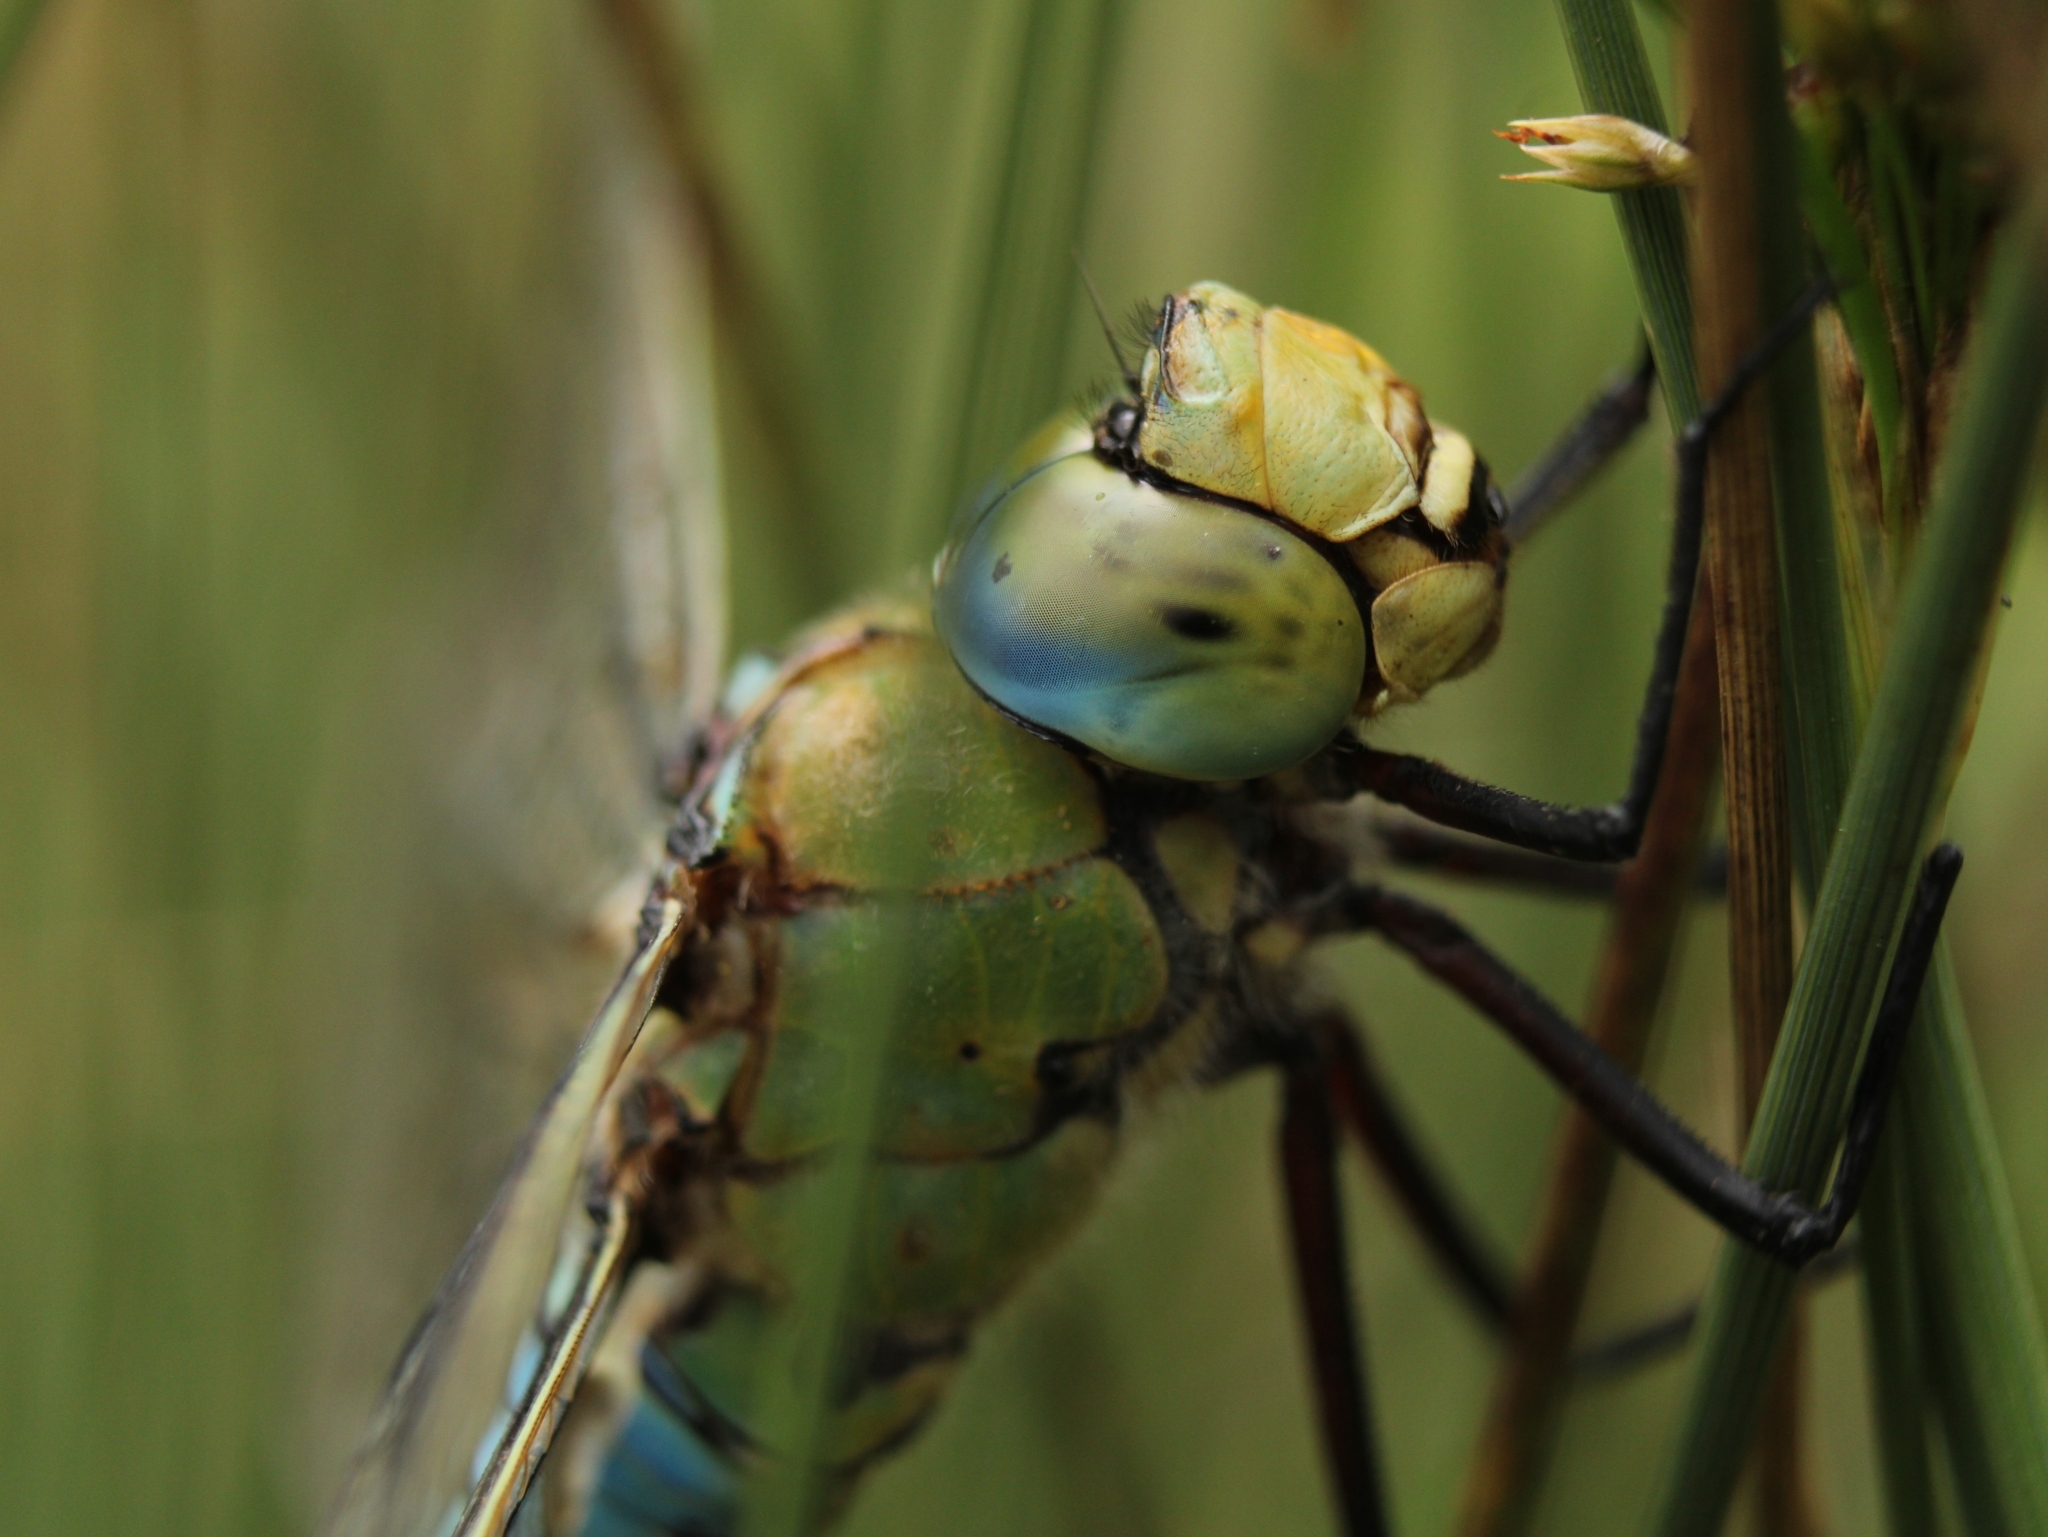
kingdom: Animalia
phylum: Arthropoda
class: Insecta
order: Odonata
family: Aeshnidae
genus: Anax
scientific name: Anax imperator
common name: Emperor dragonfly
